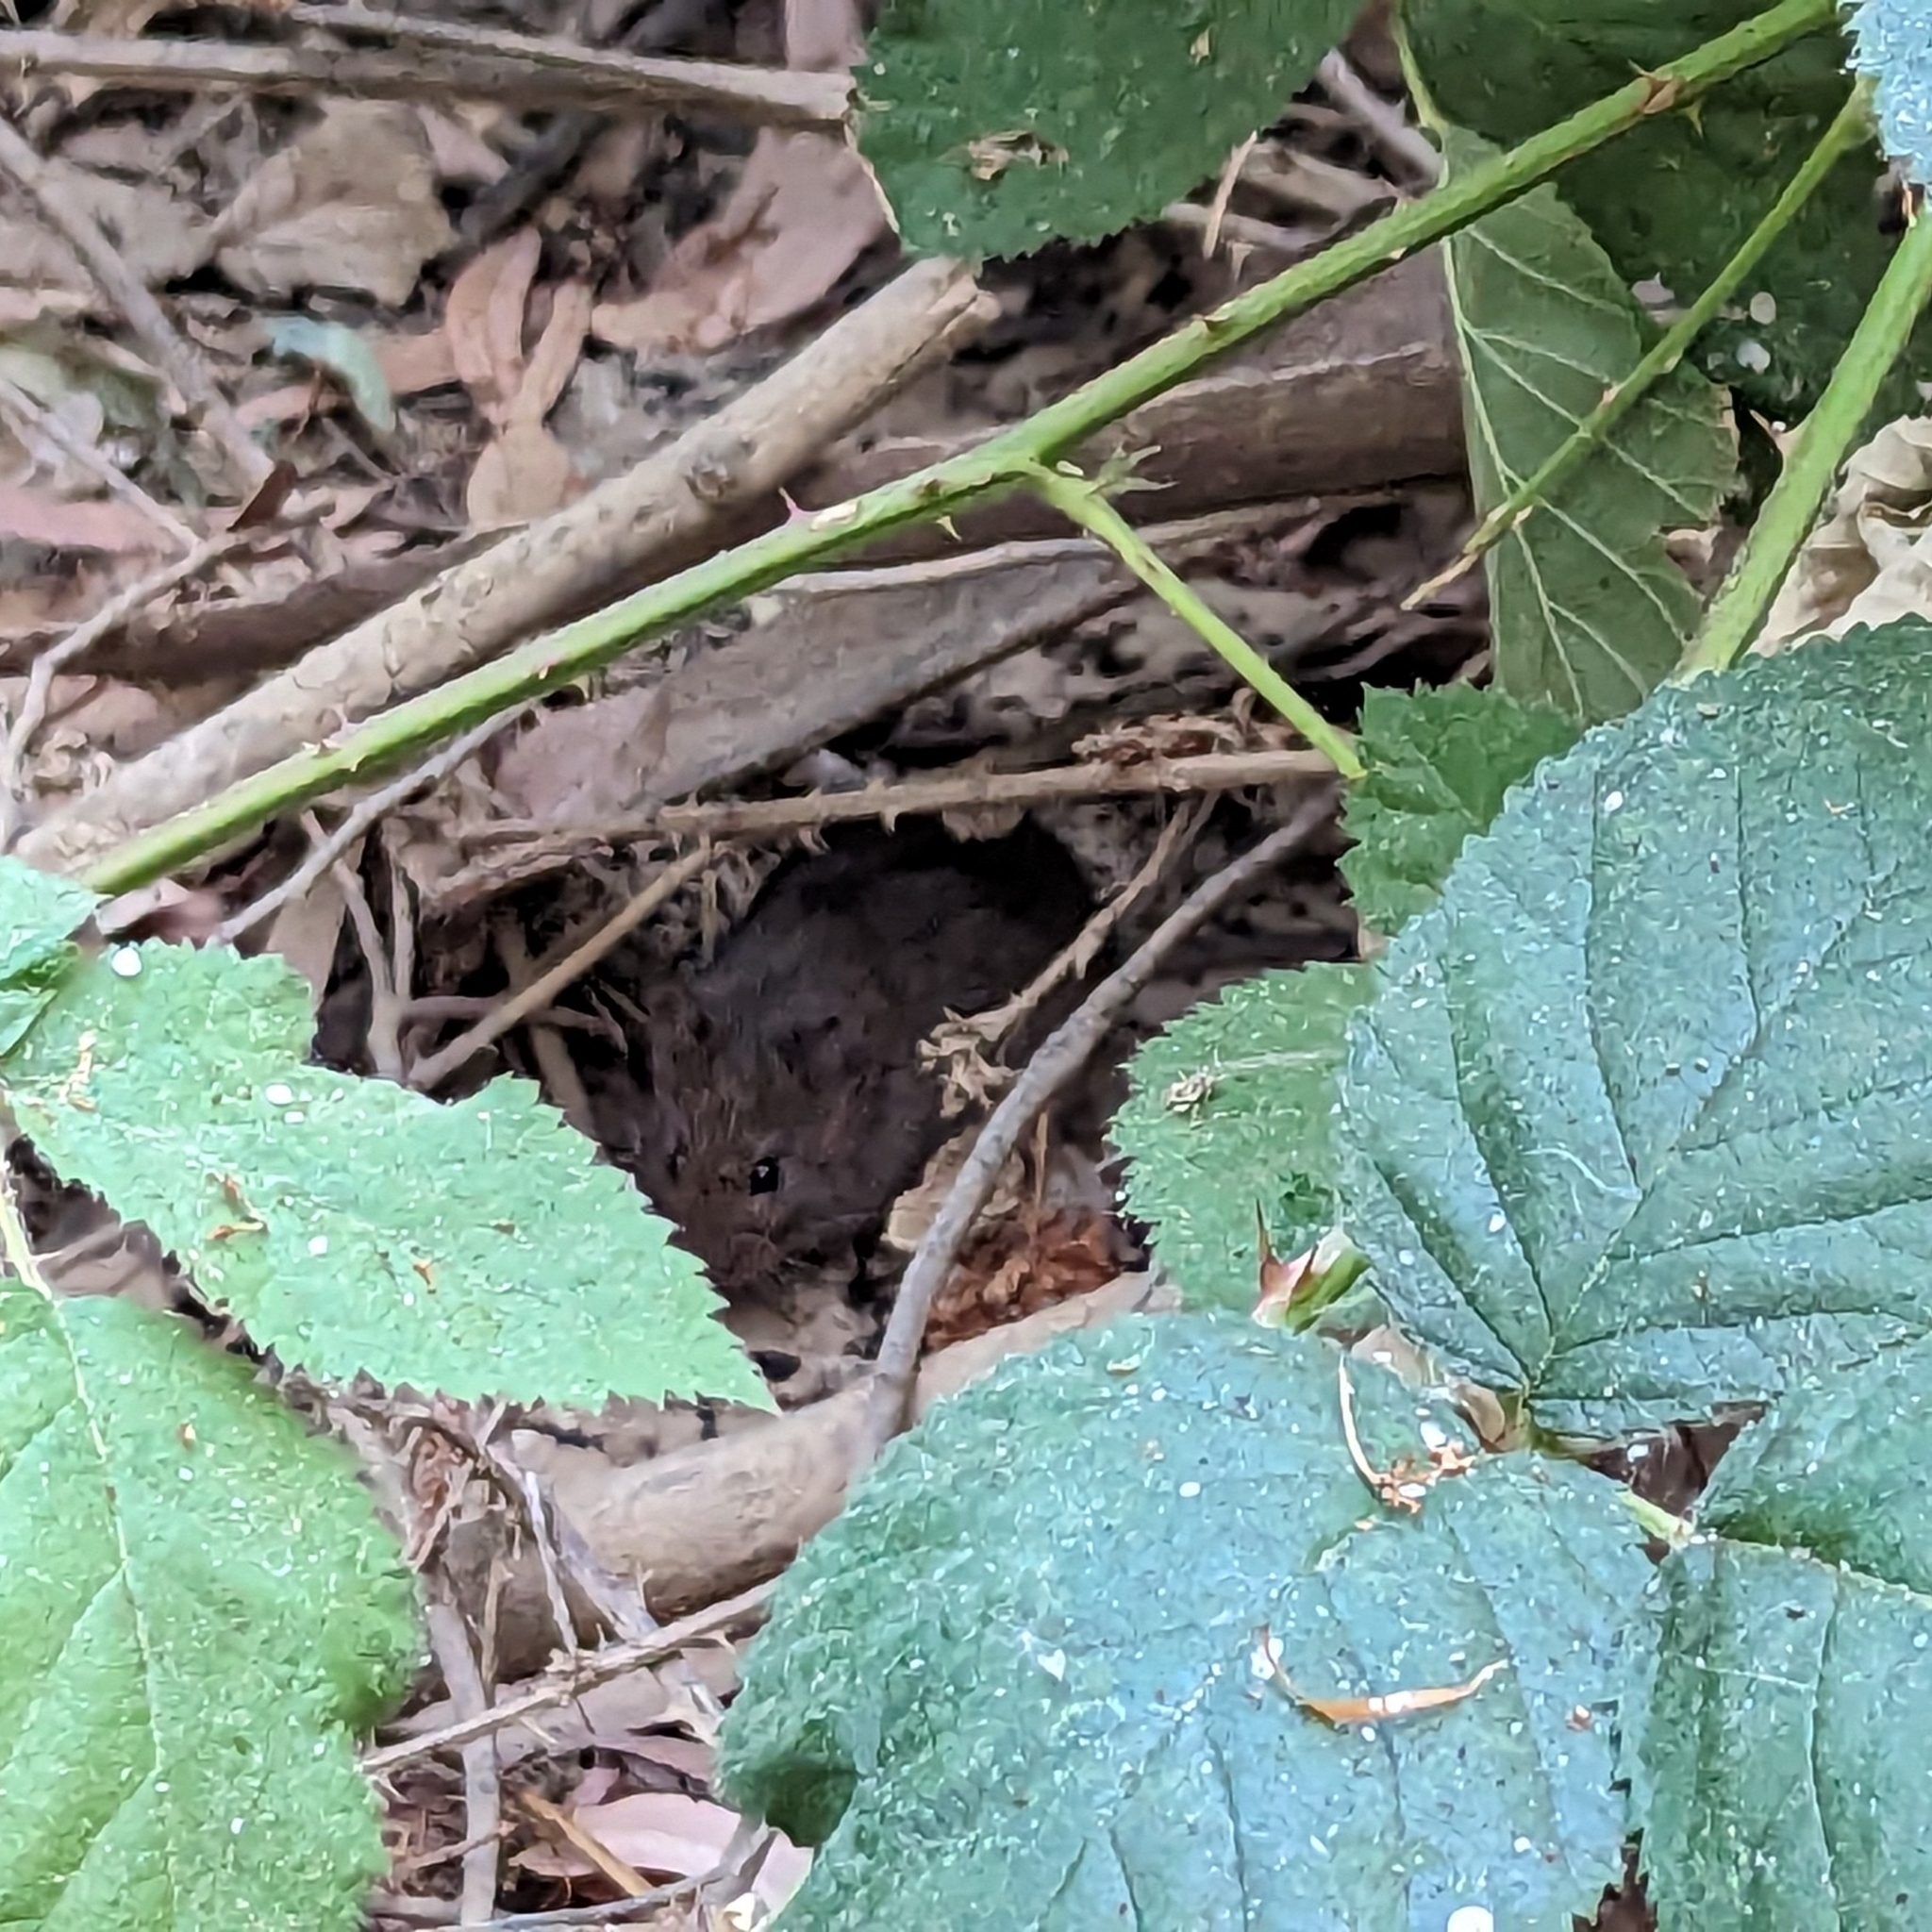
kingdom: Animalia
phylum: Chordata
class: Mammalia
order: Rodentia
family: Cricetidae
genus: Microtus
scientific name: Microtus californicus
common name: California vole
